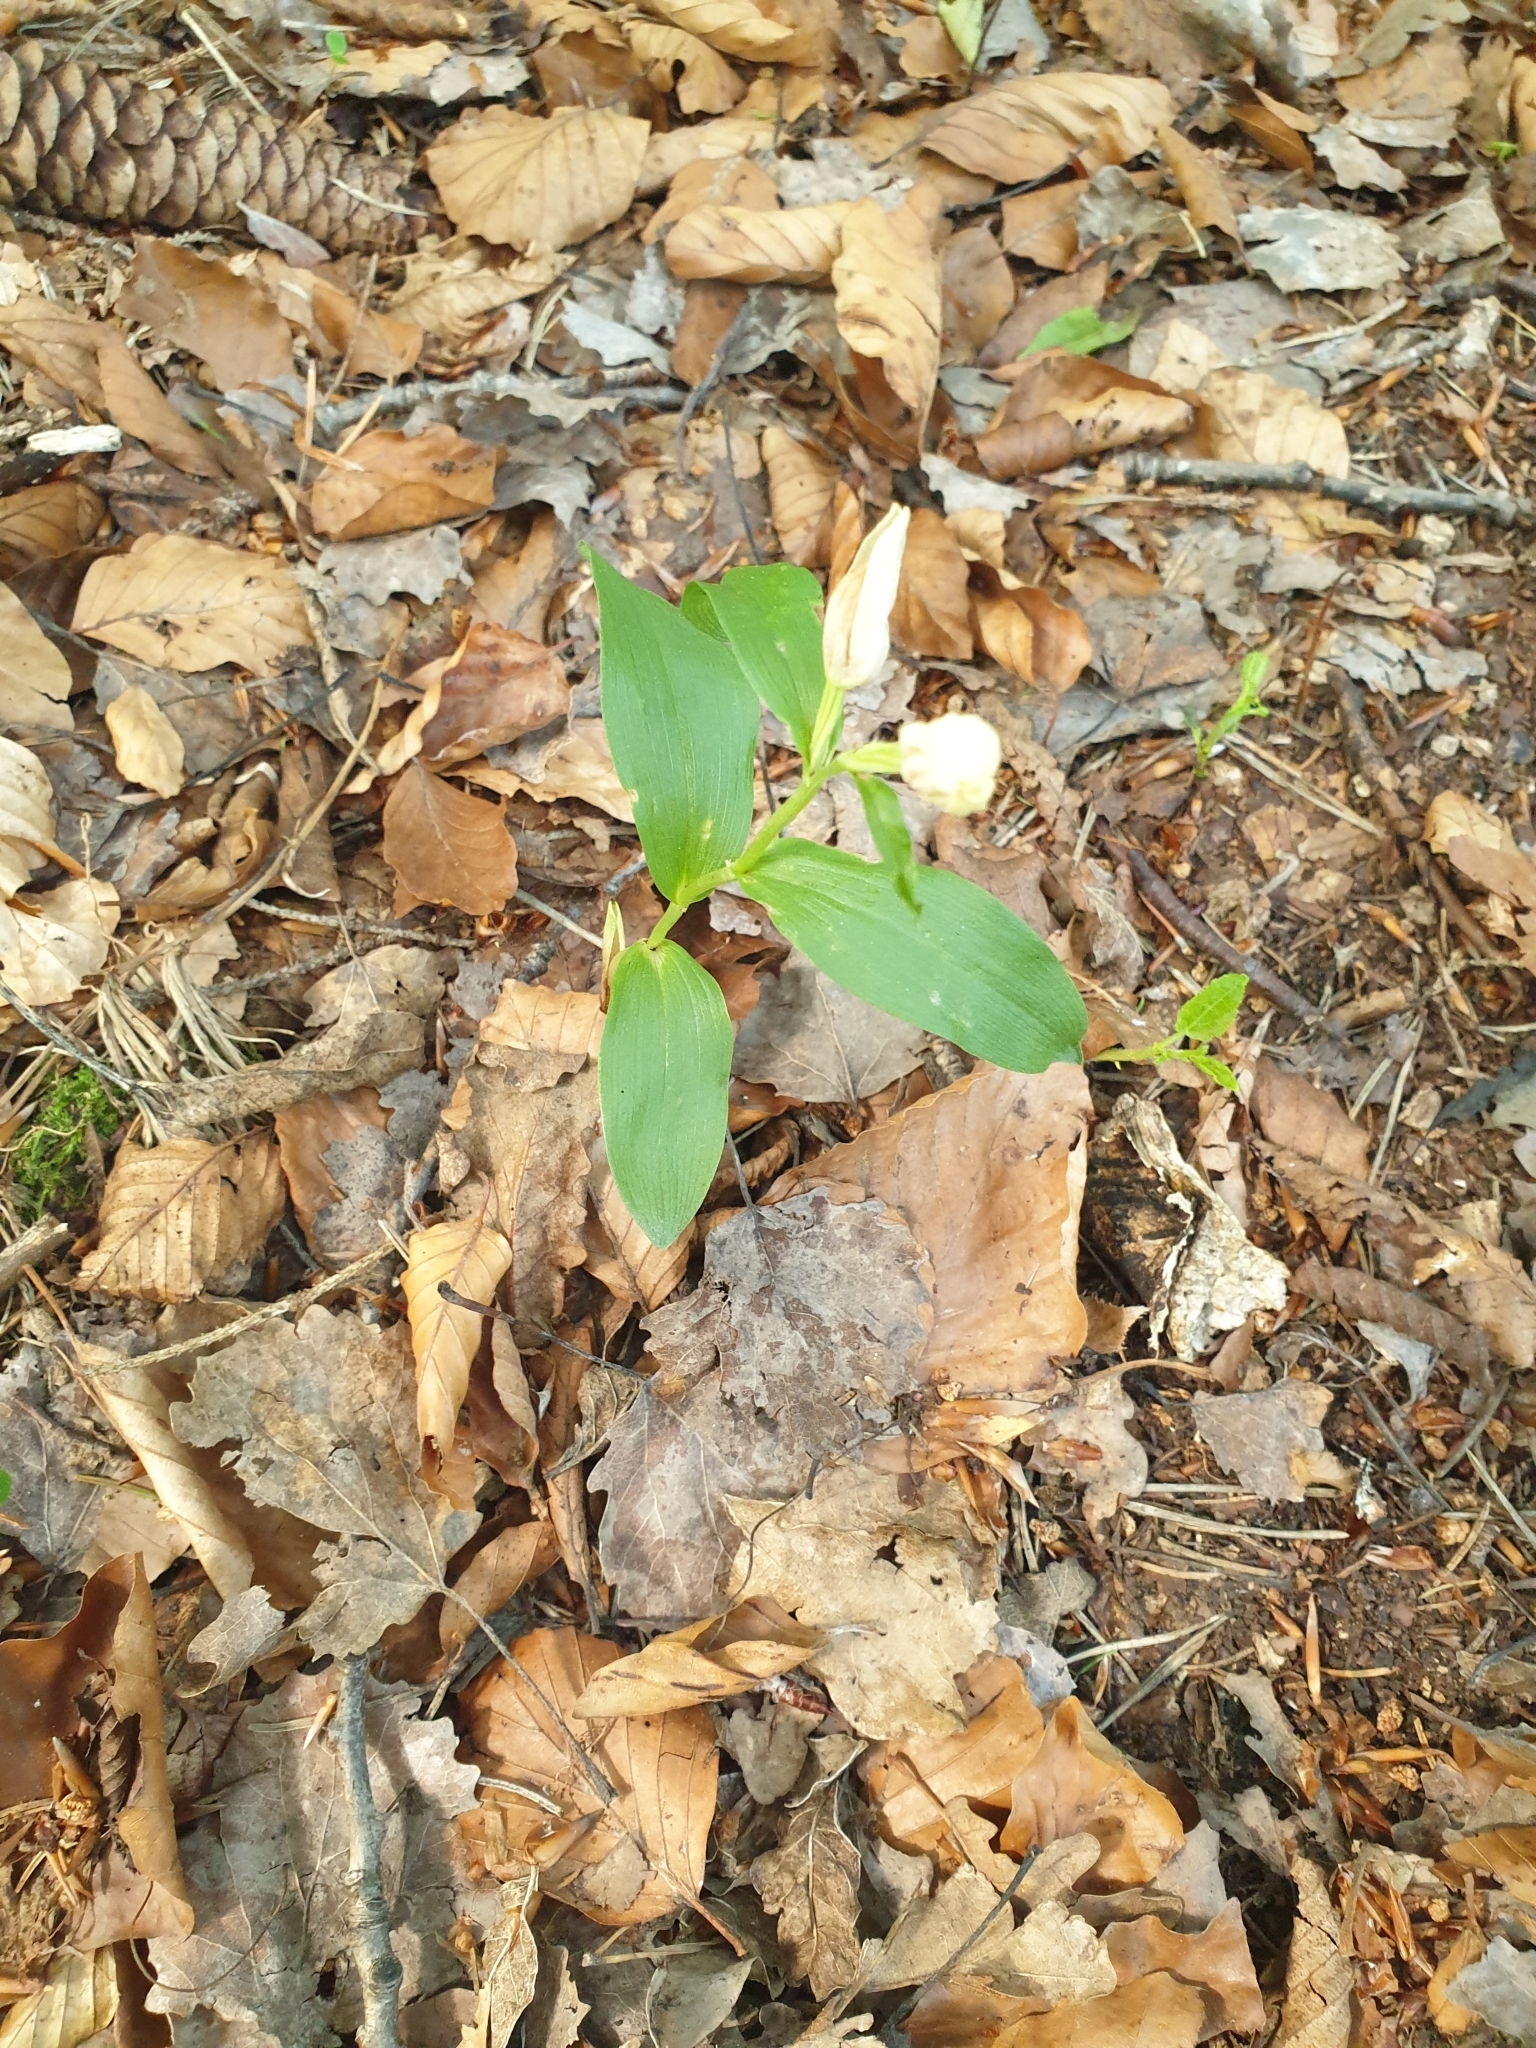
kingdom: Plantae
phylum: Tracheophyta
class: Liliopsida
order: Asparagales
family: Orchidaceae
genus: Cephalanthera
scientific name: Cephalanthera damasonium
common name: White helleborine
